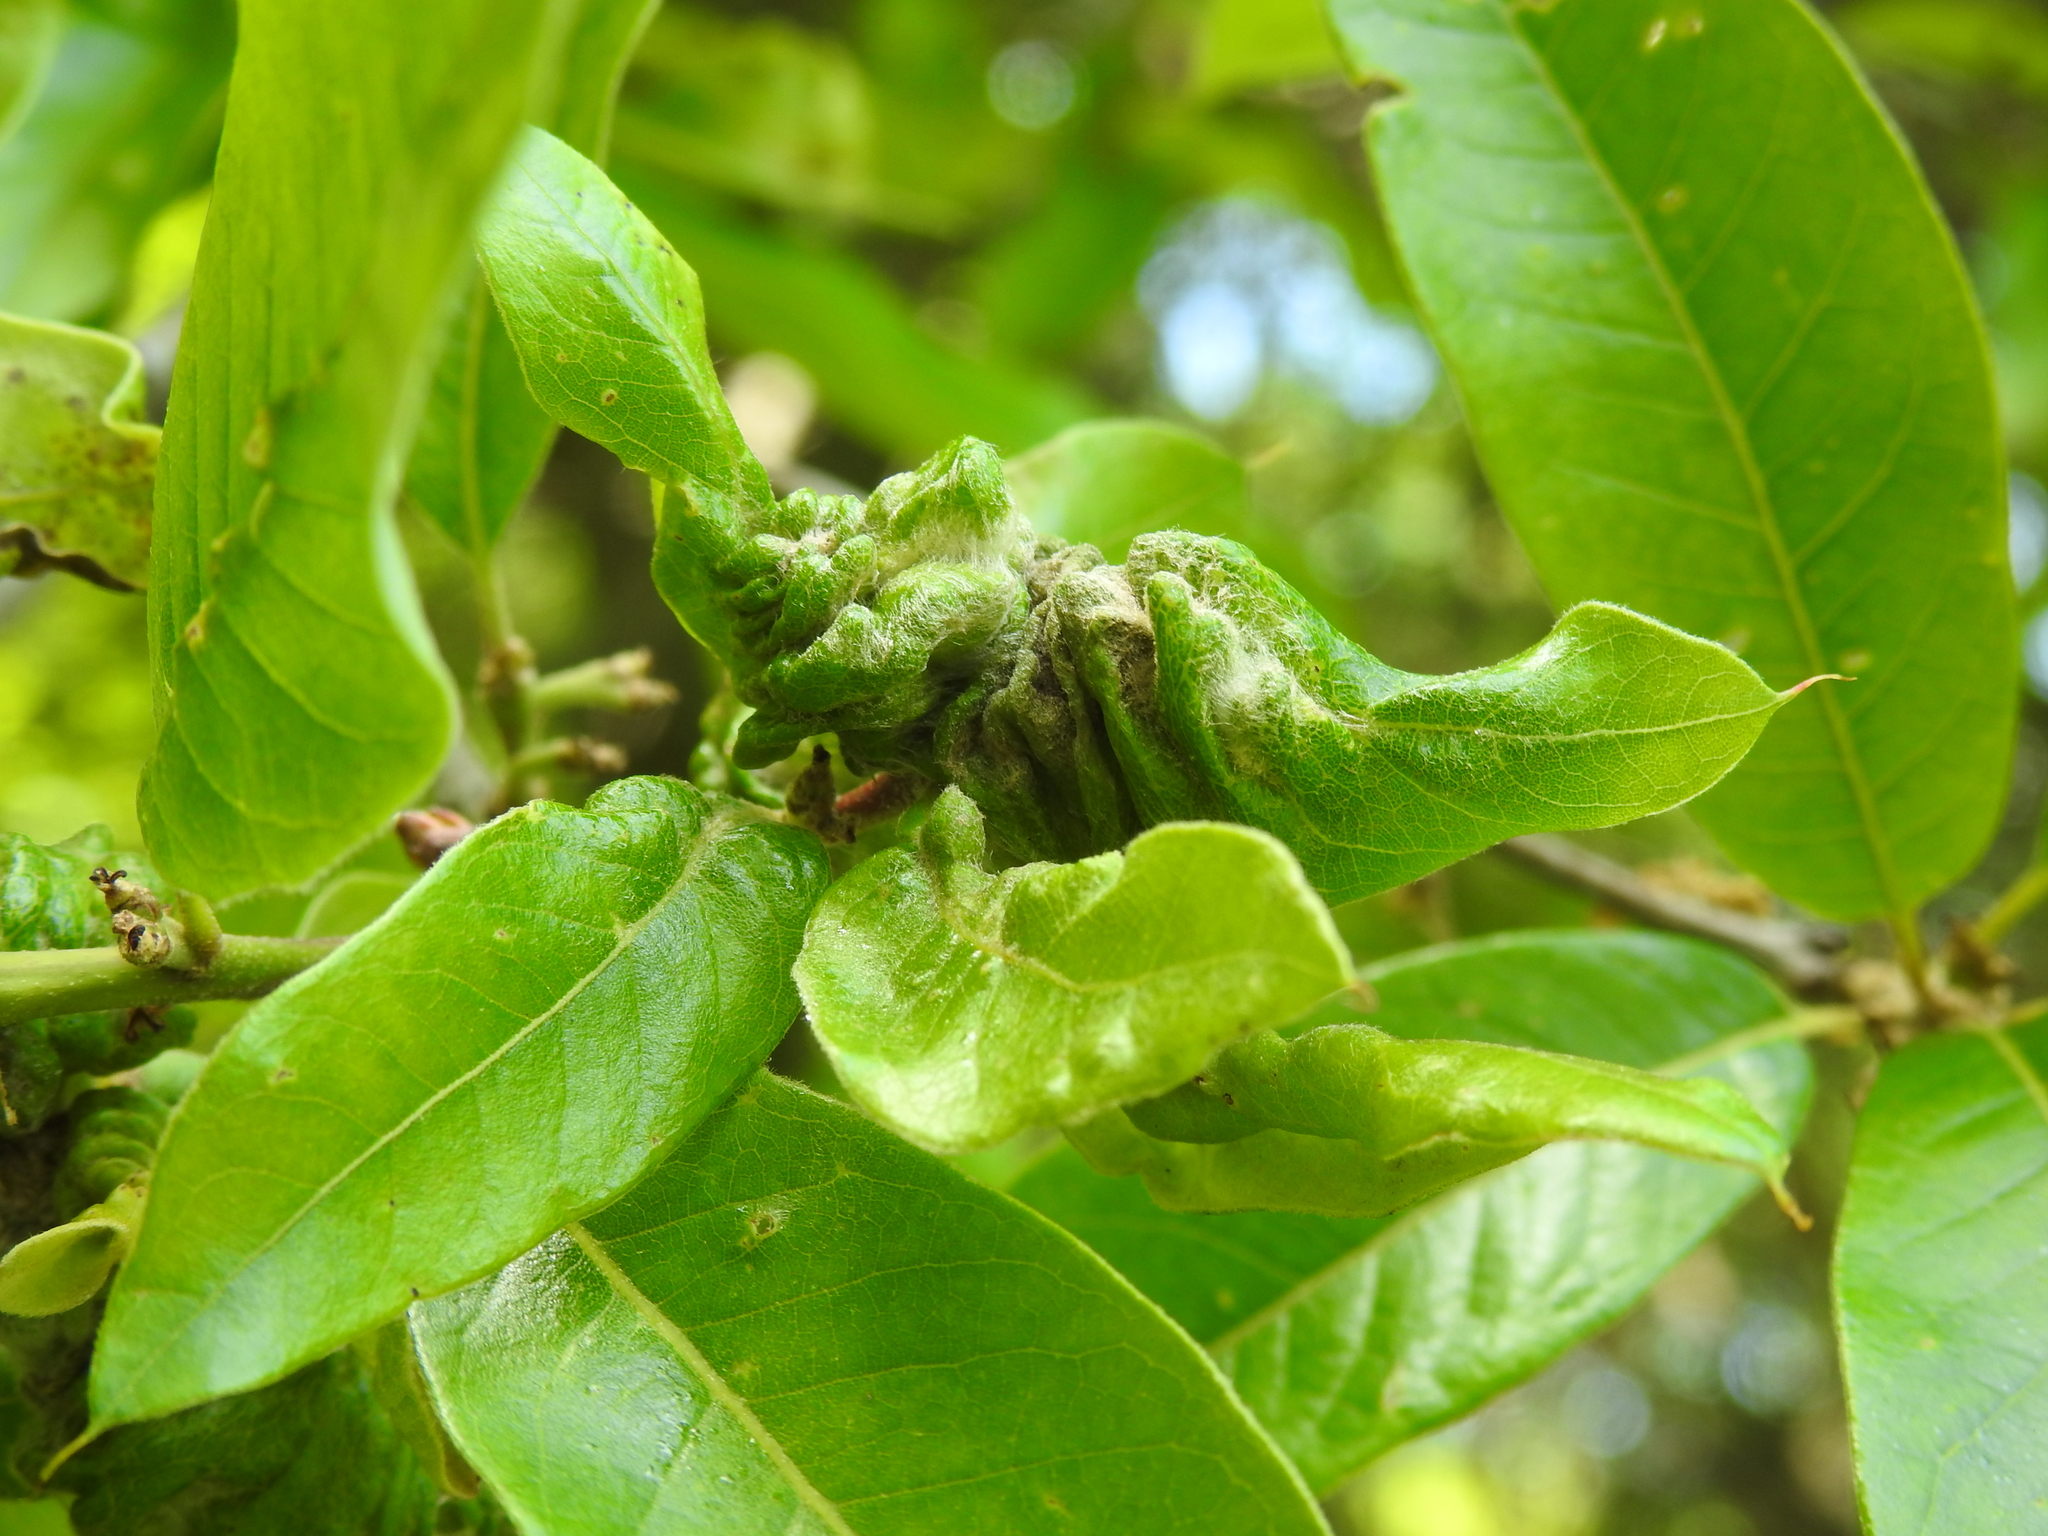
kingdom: Animalia
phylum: Arthropoda
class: Insecta
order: Diptera
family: Cecidomyiidae
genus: Macrodiplosis
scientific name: Macrodiplosis niveipila
